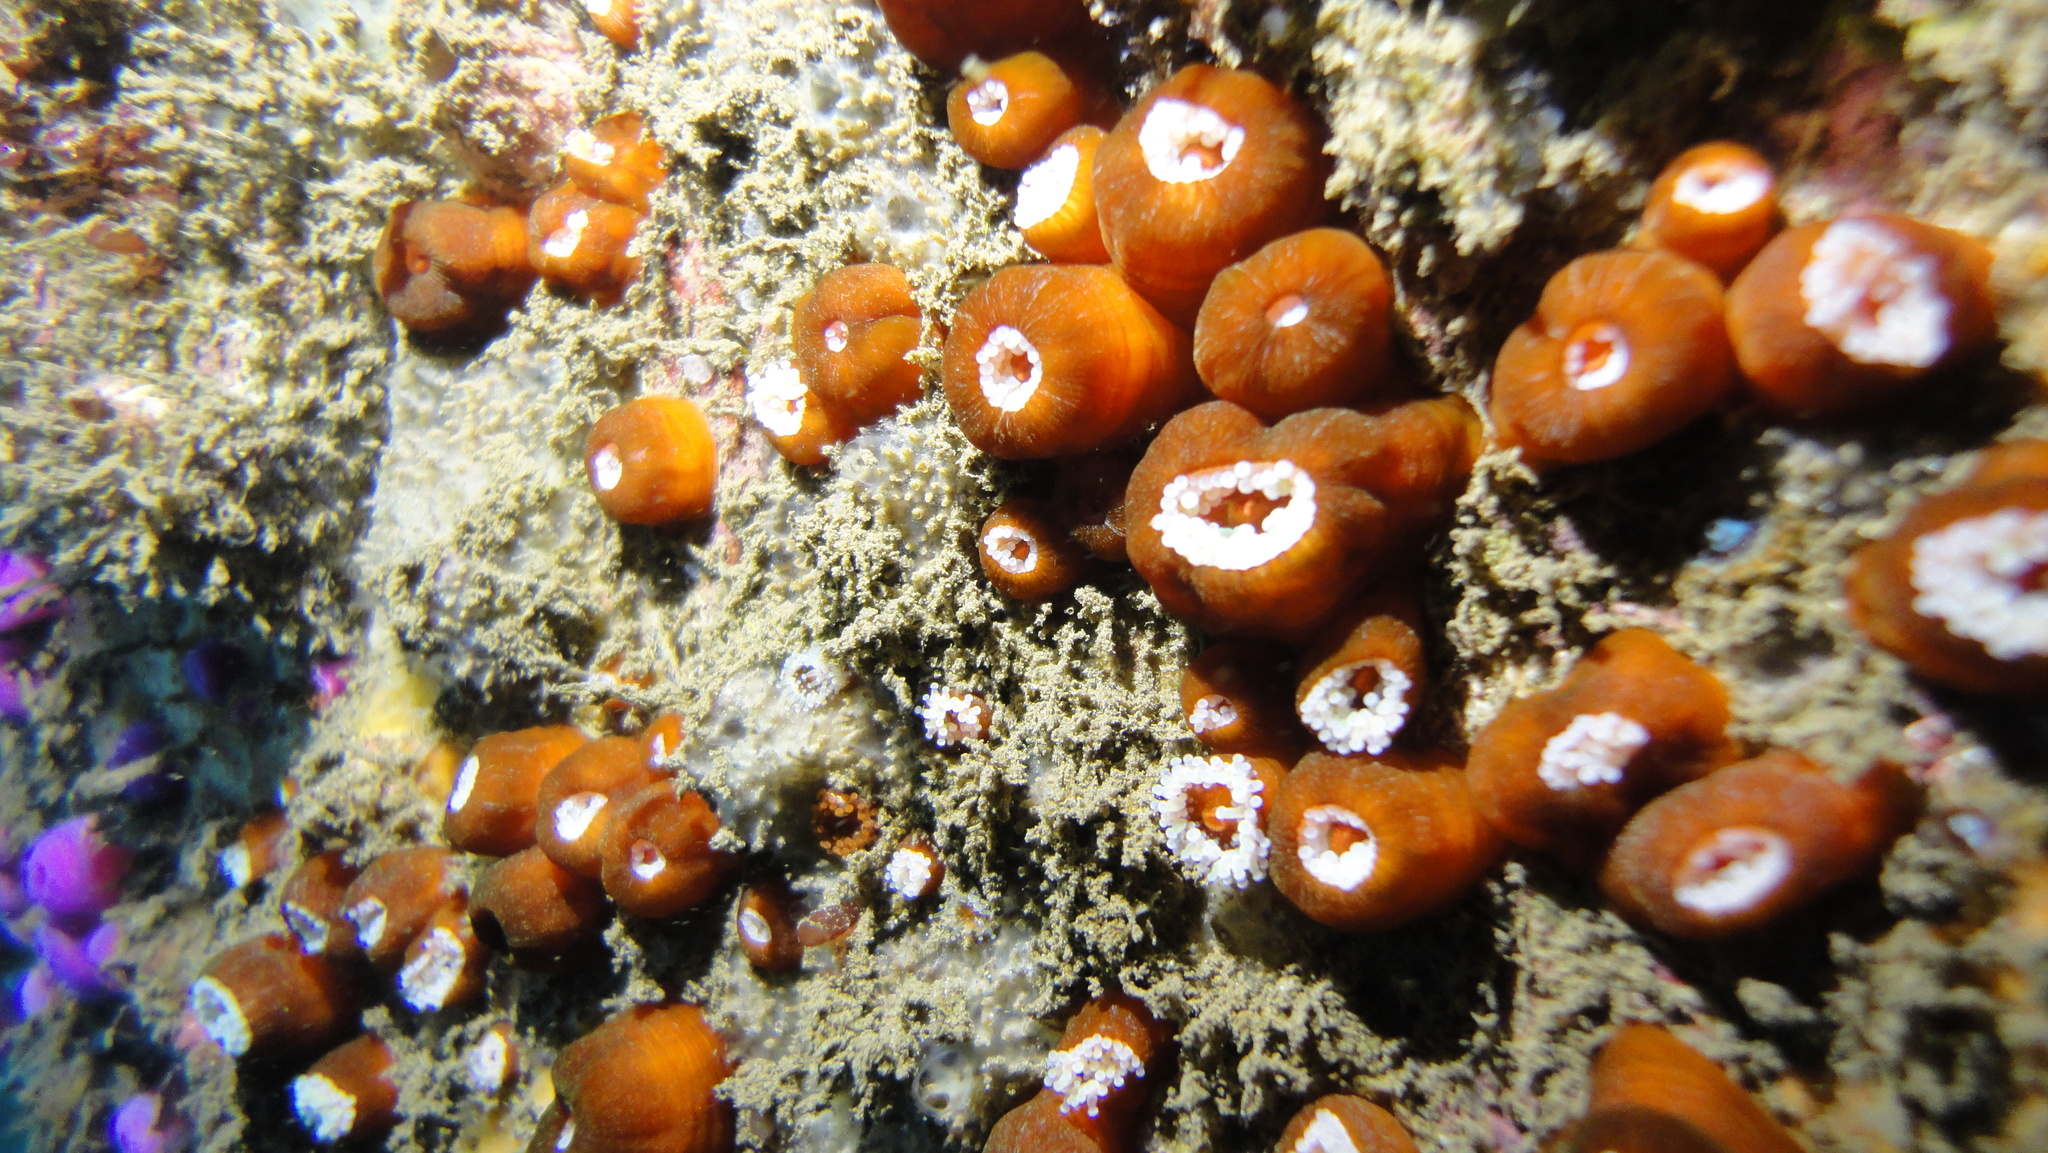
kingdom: Animalia
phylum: Cnidaria
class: Anthozoa
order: Corallimorpharia
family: Corallimorphidae
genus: Corynactis
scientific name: Corynactis chilensis
